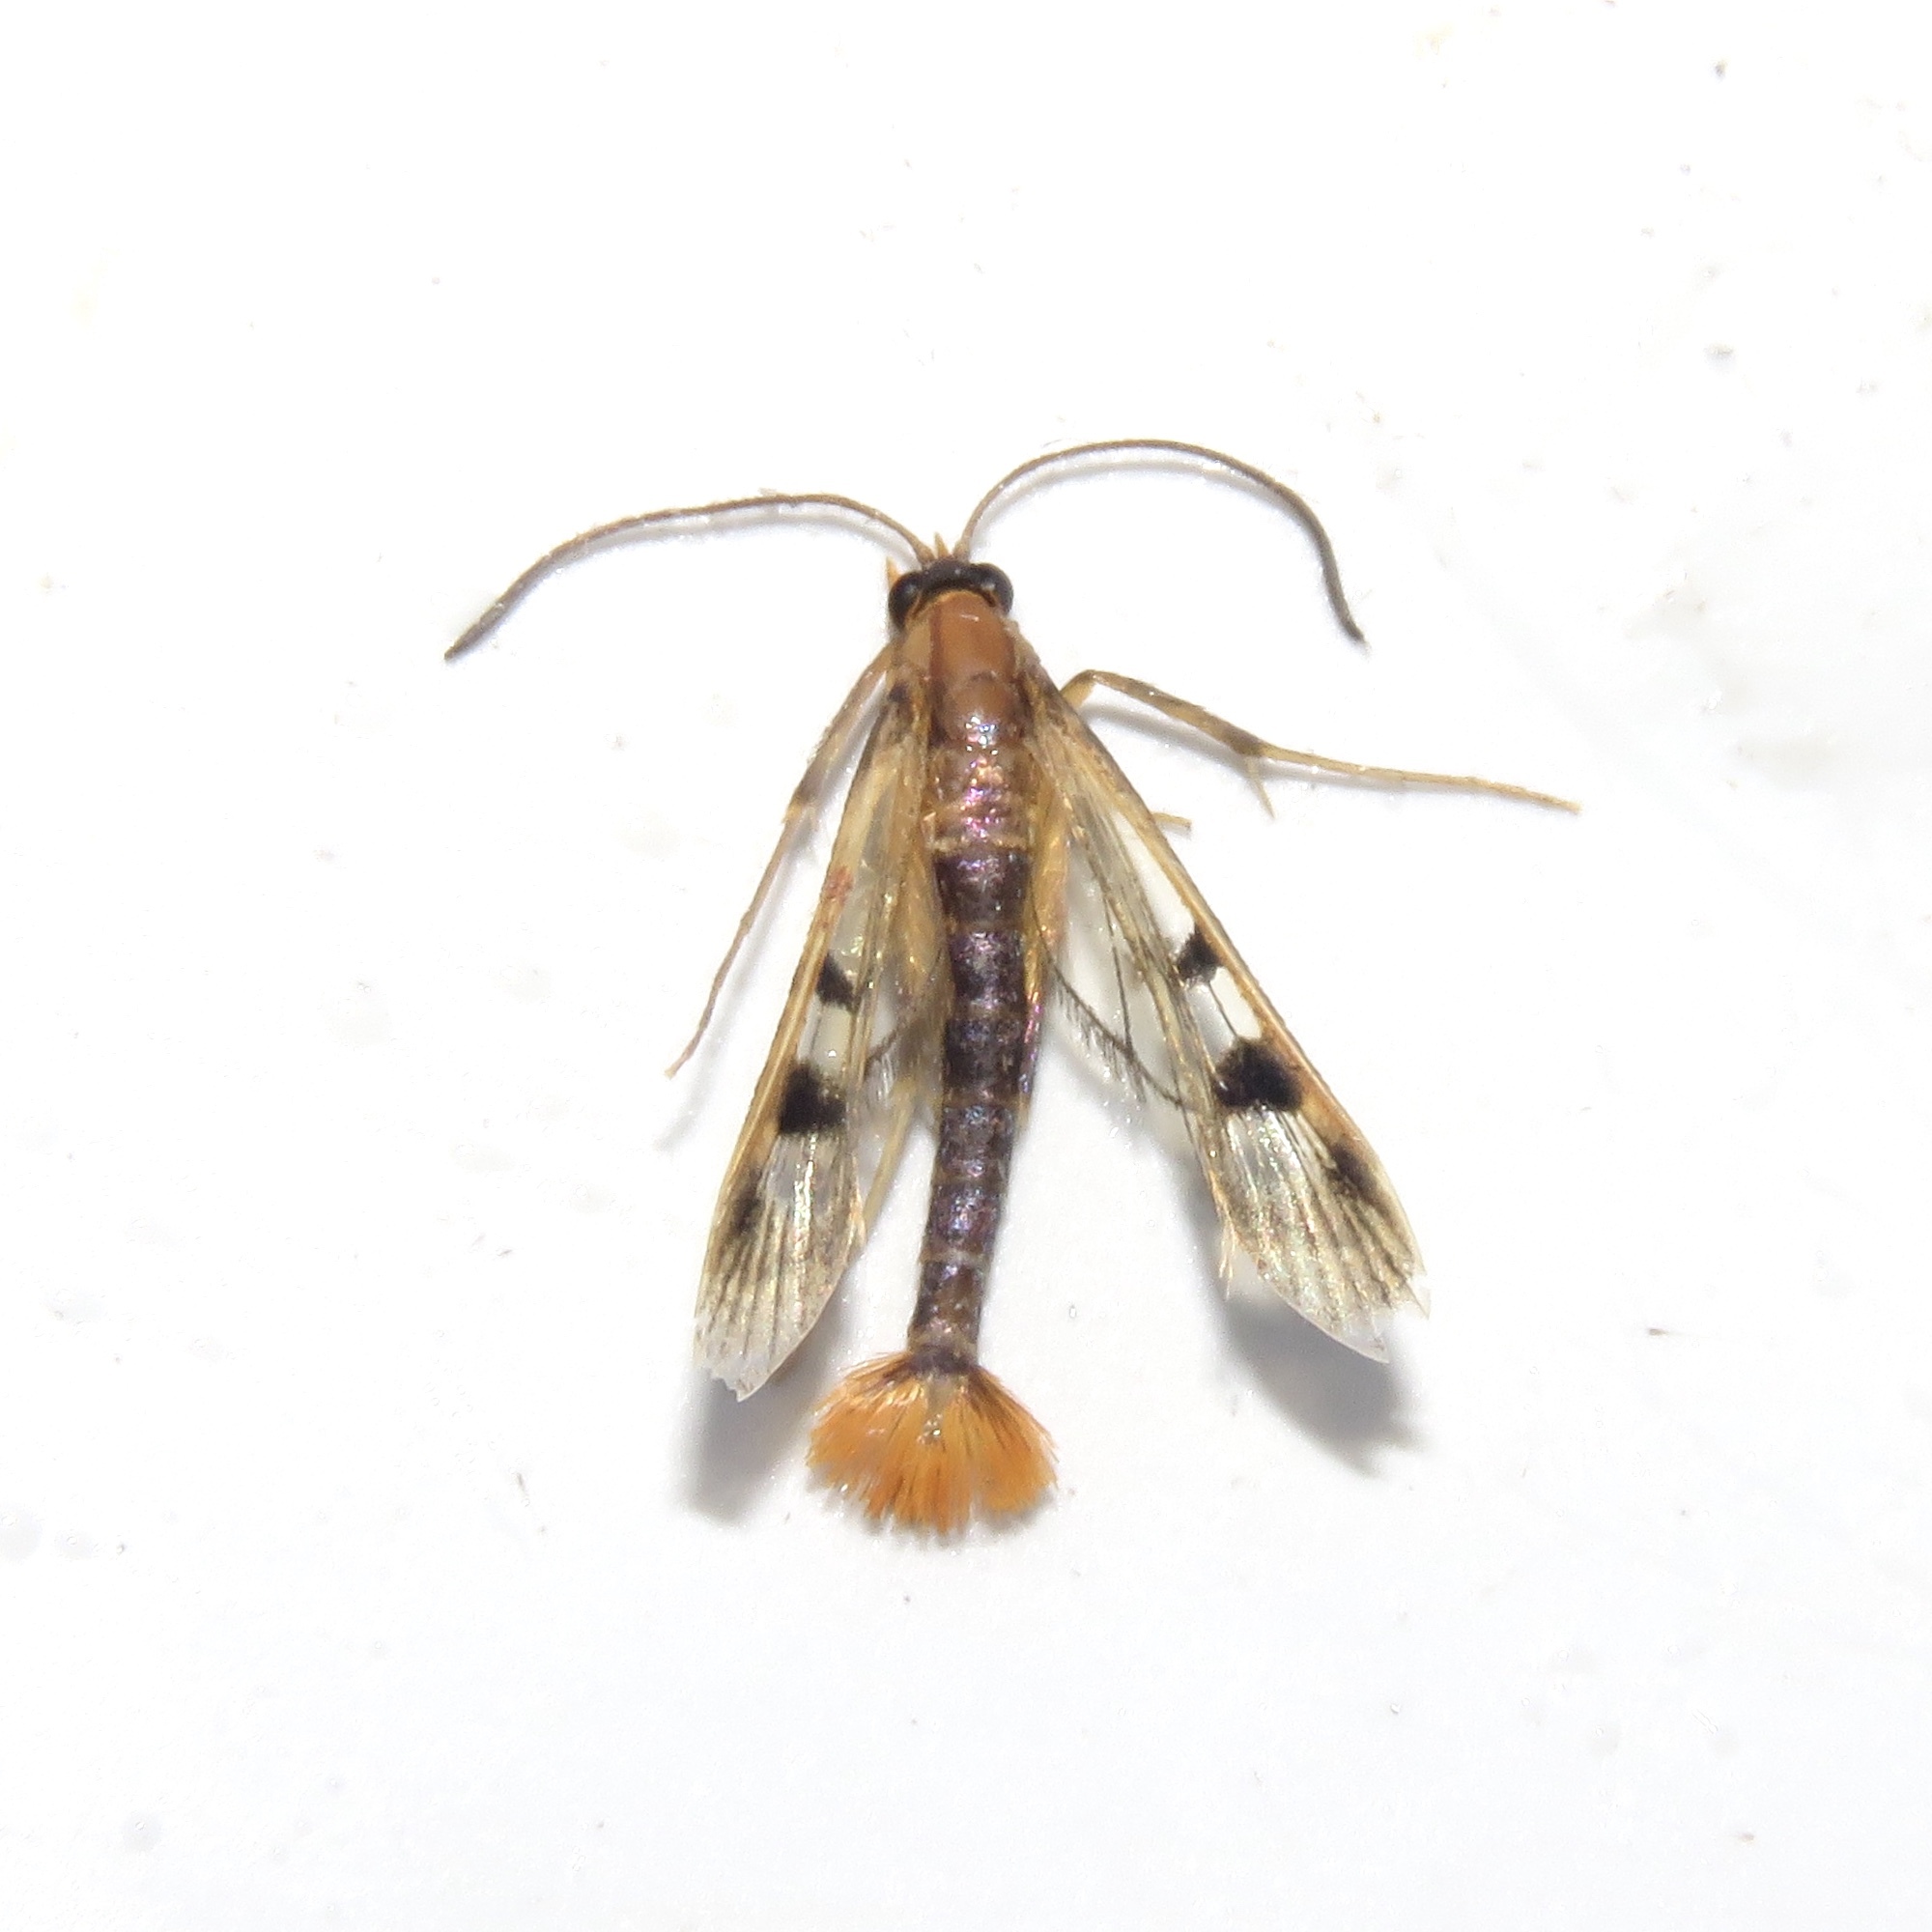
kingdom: Animalia
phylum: Arthropoda
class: Insecta
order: Lepidoptera
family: Sesiidae
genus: Synanthedon
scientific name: Synanthedon acerni
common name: Maple callus borer moth
